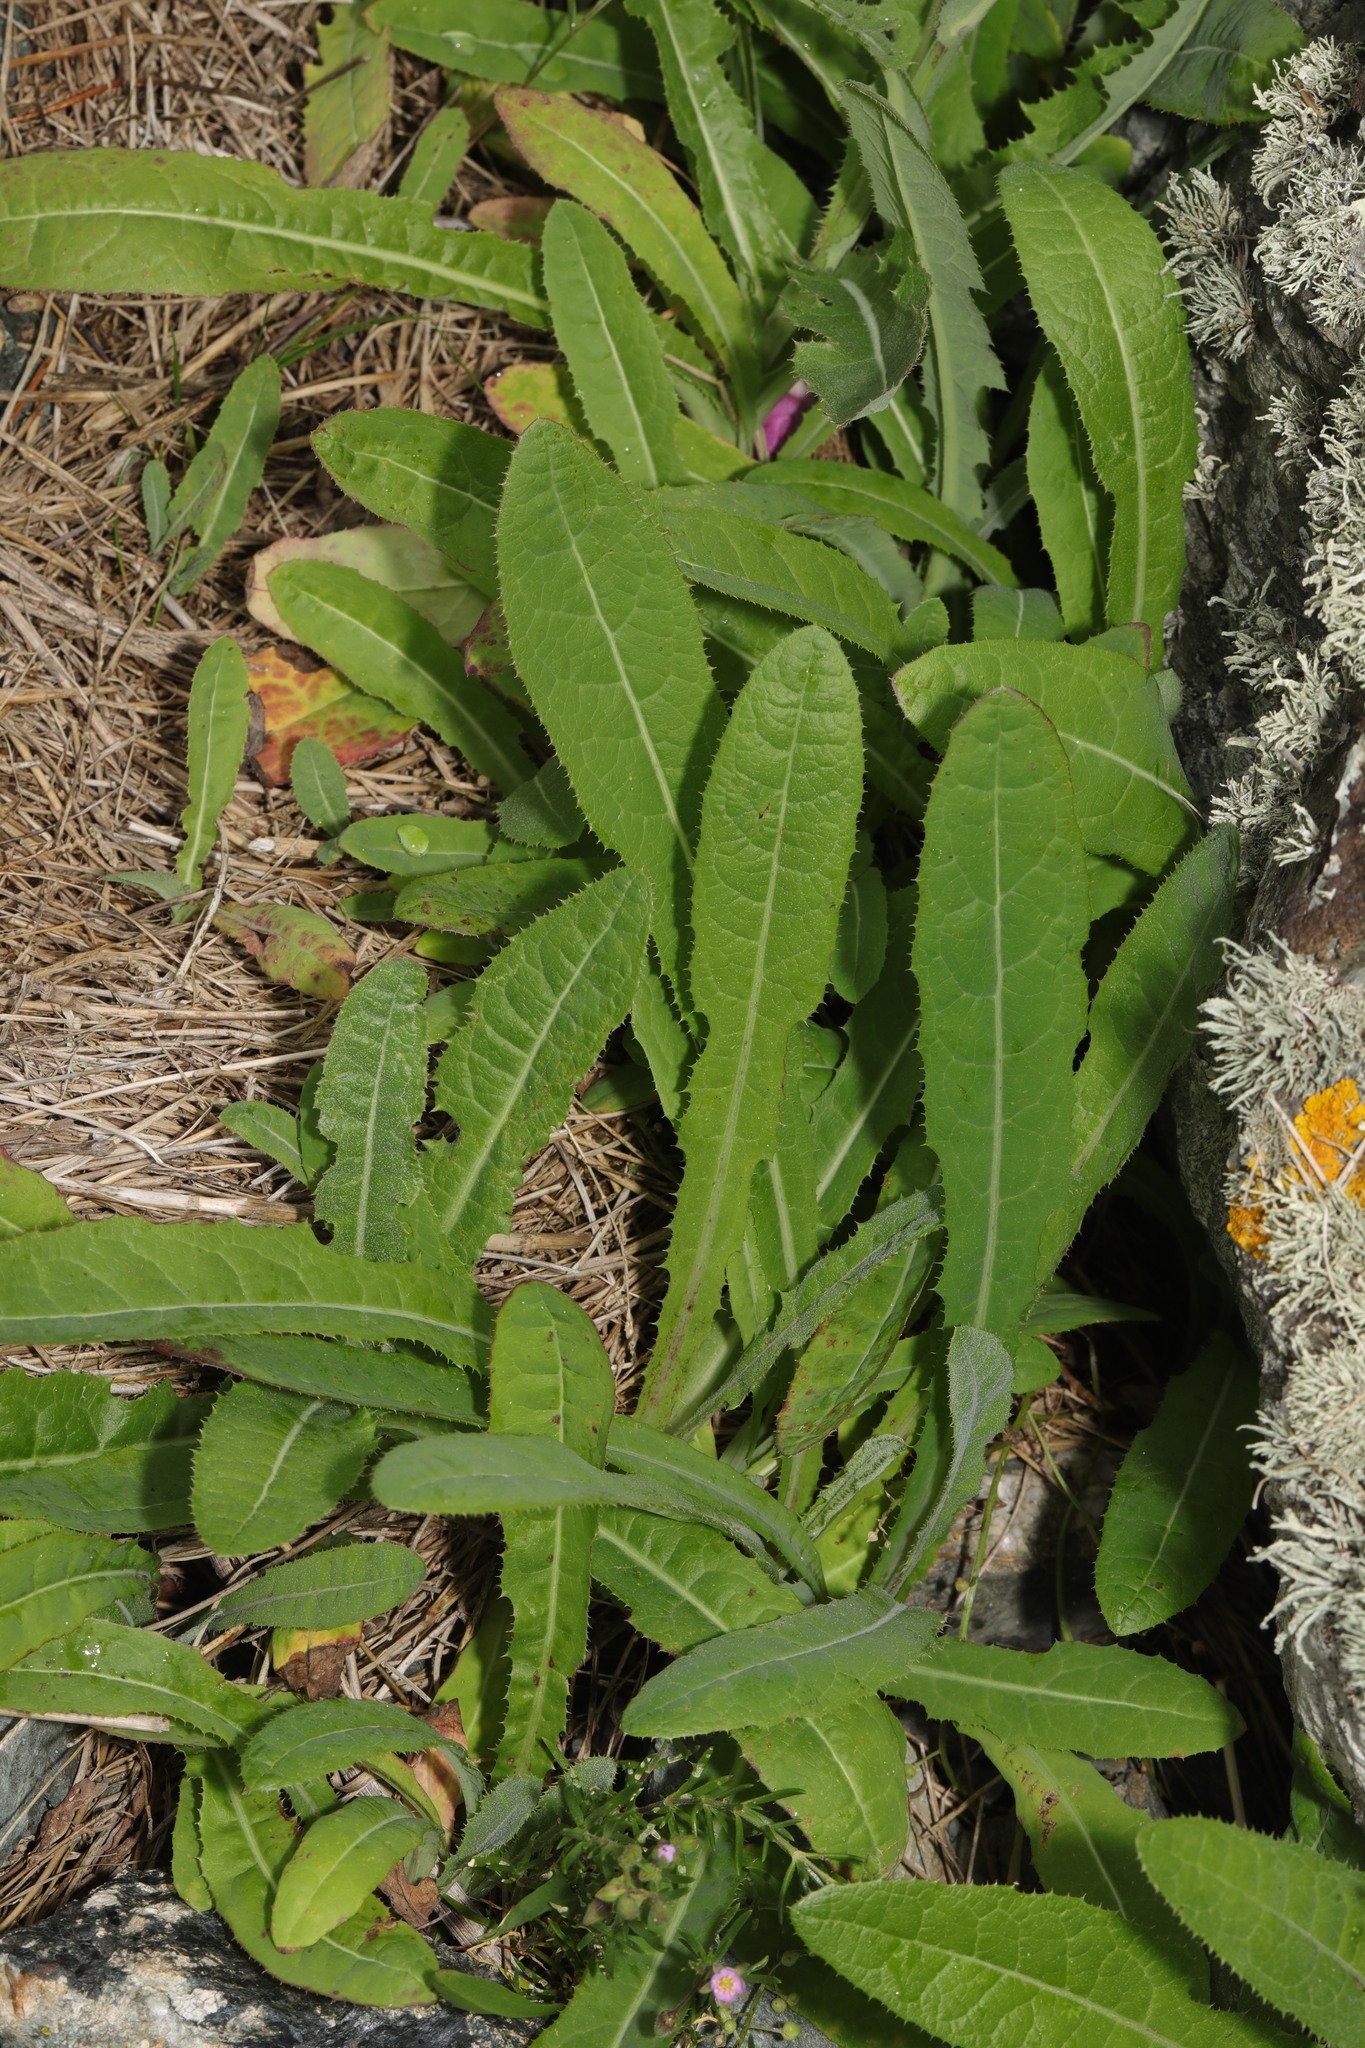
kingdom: Plantae
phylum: Tracheophyta
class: Magnoliopsida
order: Asterales
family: Asteraceae
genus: Sonchus
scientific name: Sonchus arvensis
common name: Perennial sow-thistle
